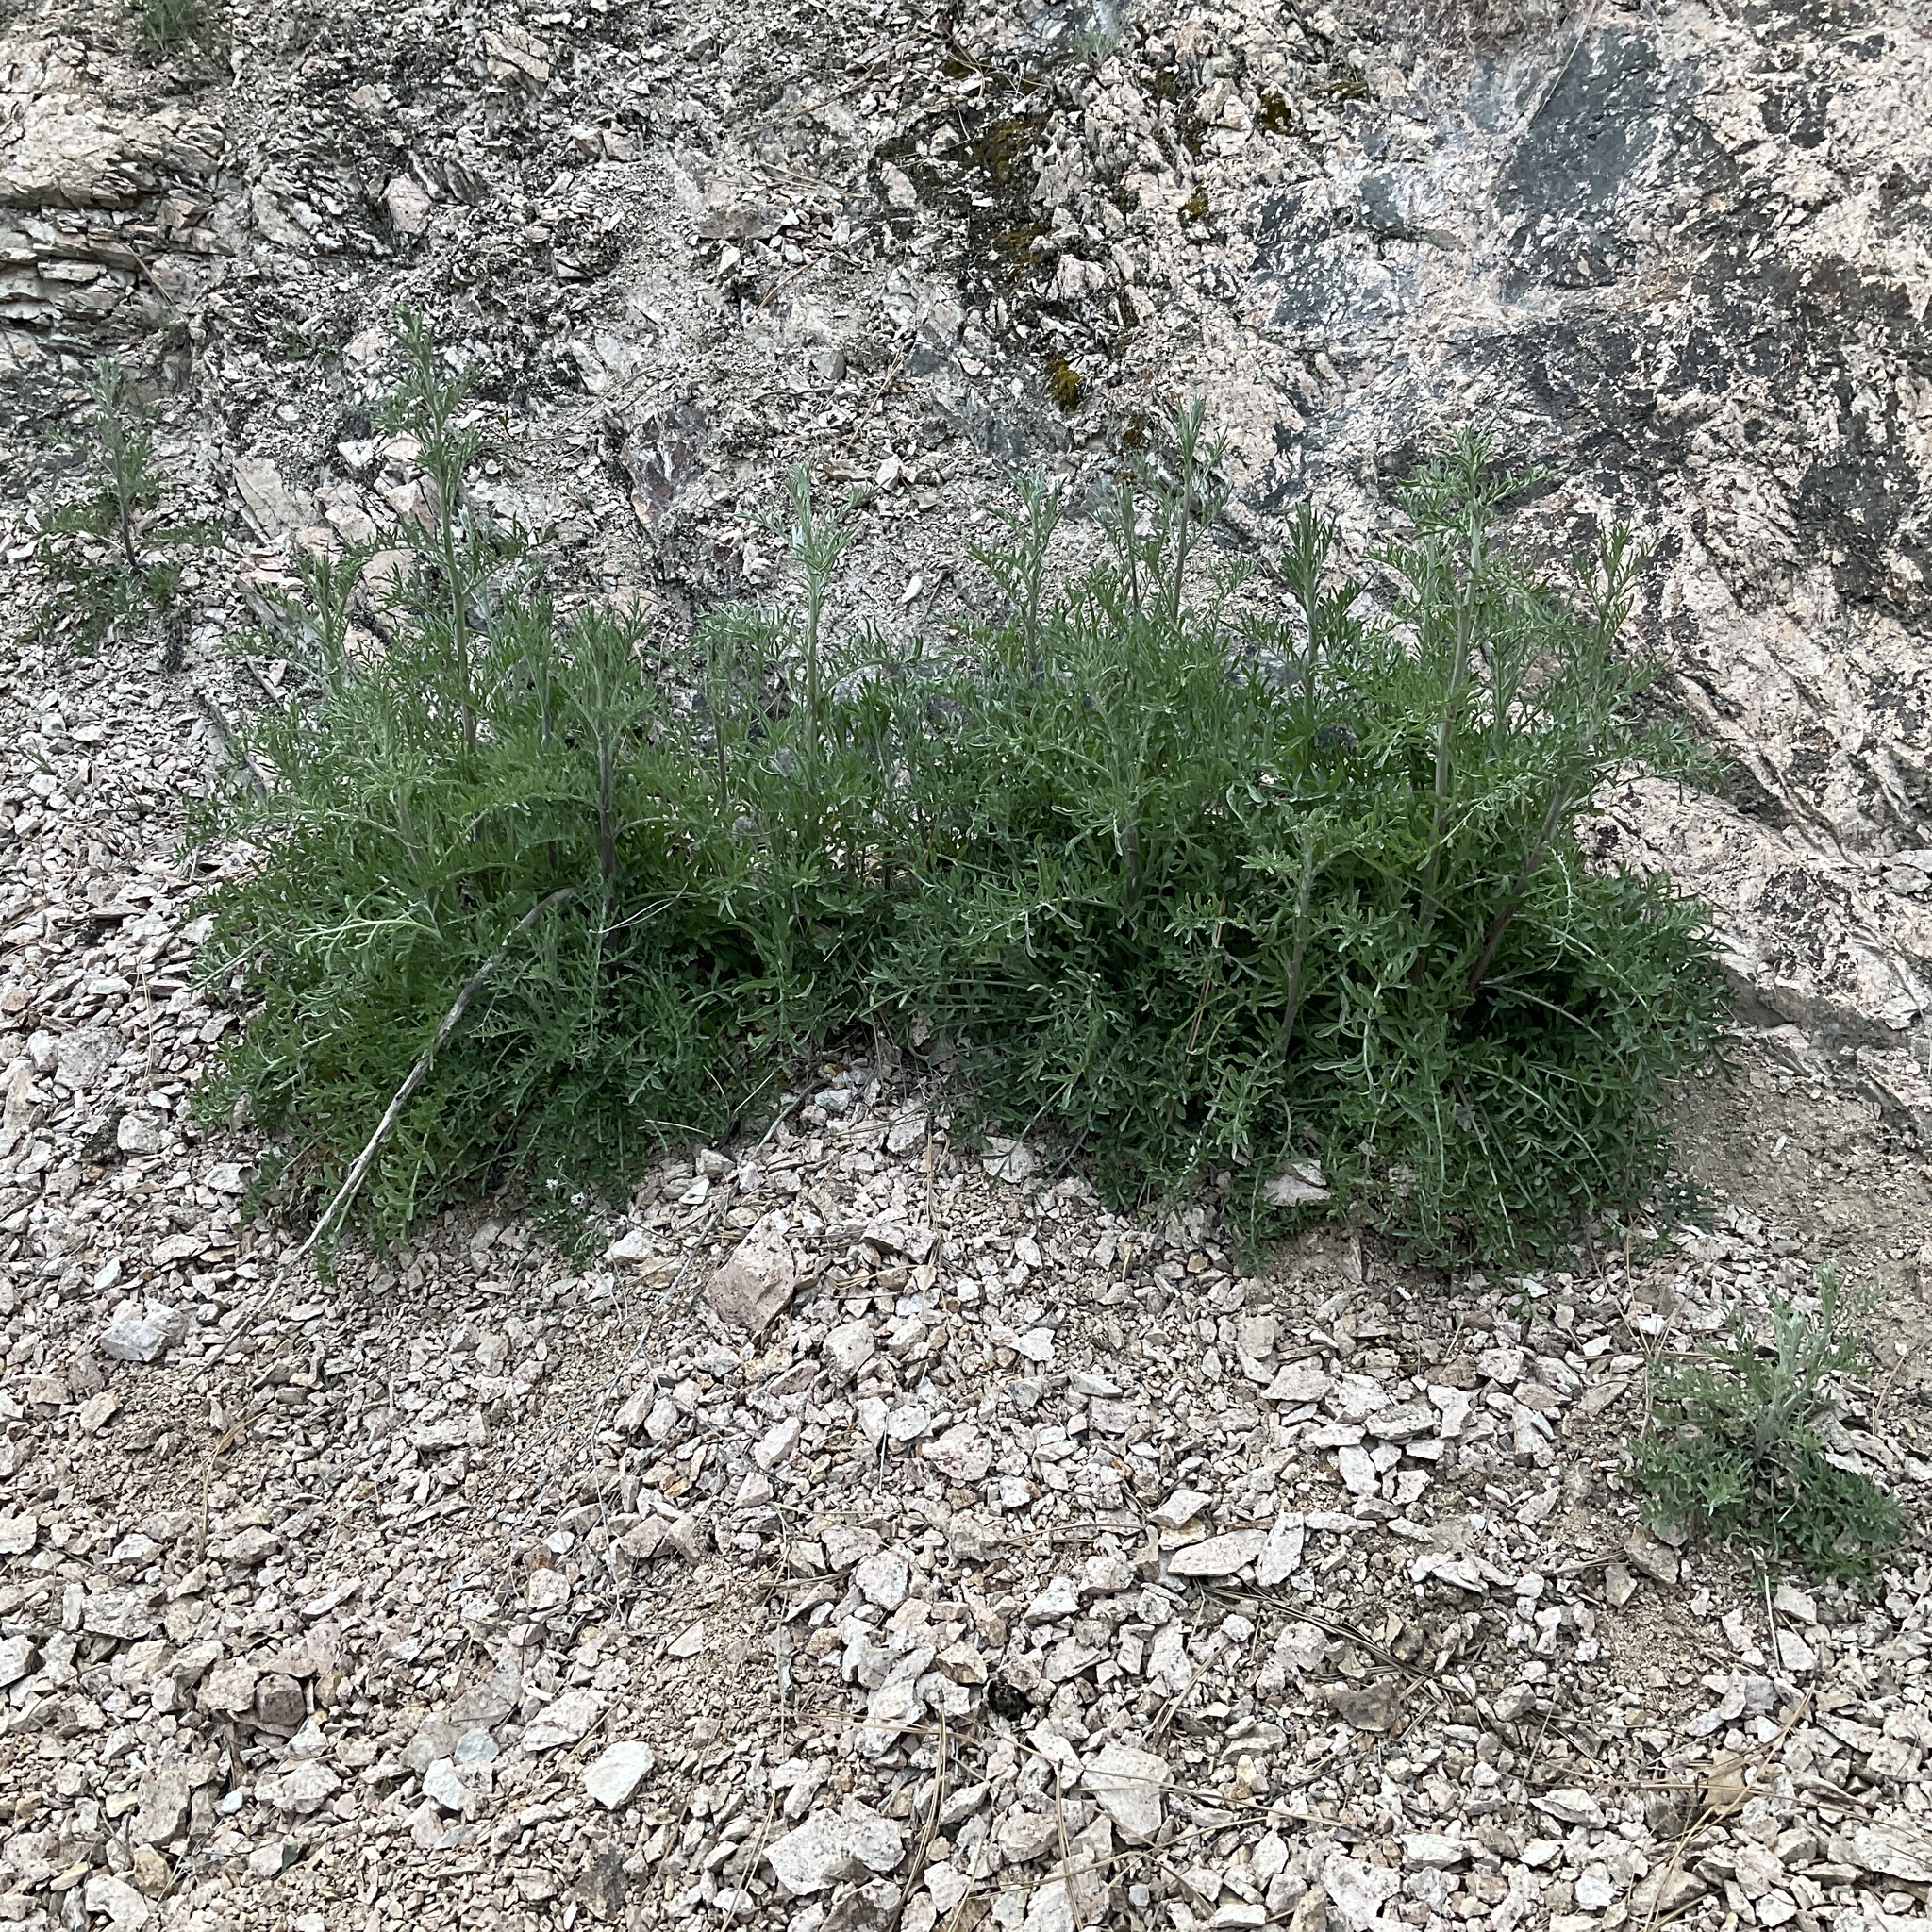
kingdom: Plantae
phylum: Tracheophyta
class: Magnoliopsida
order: Asterales
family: Asteraceae
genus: Centaurea
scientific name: Centaurea diffusa
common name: Diffuse knapweed
